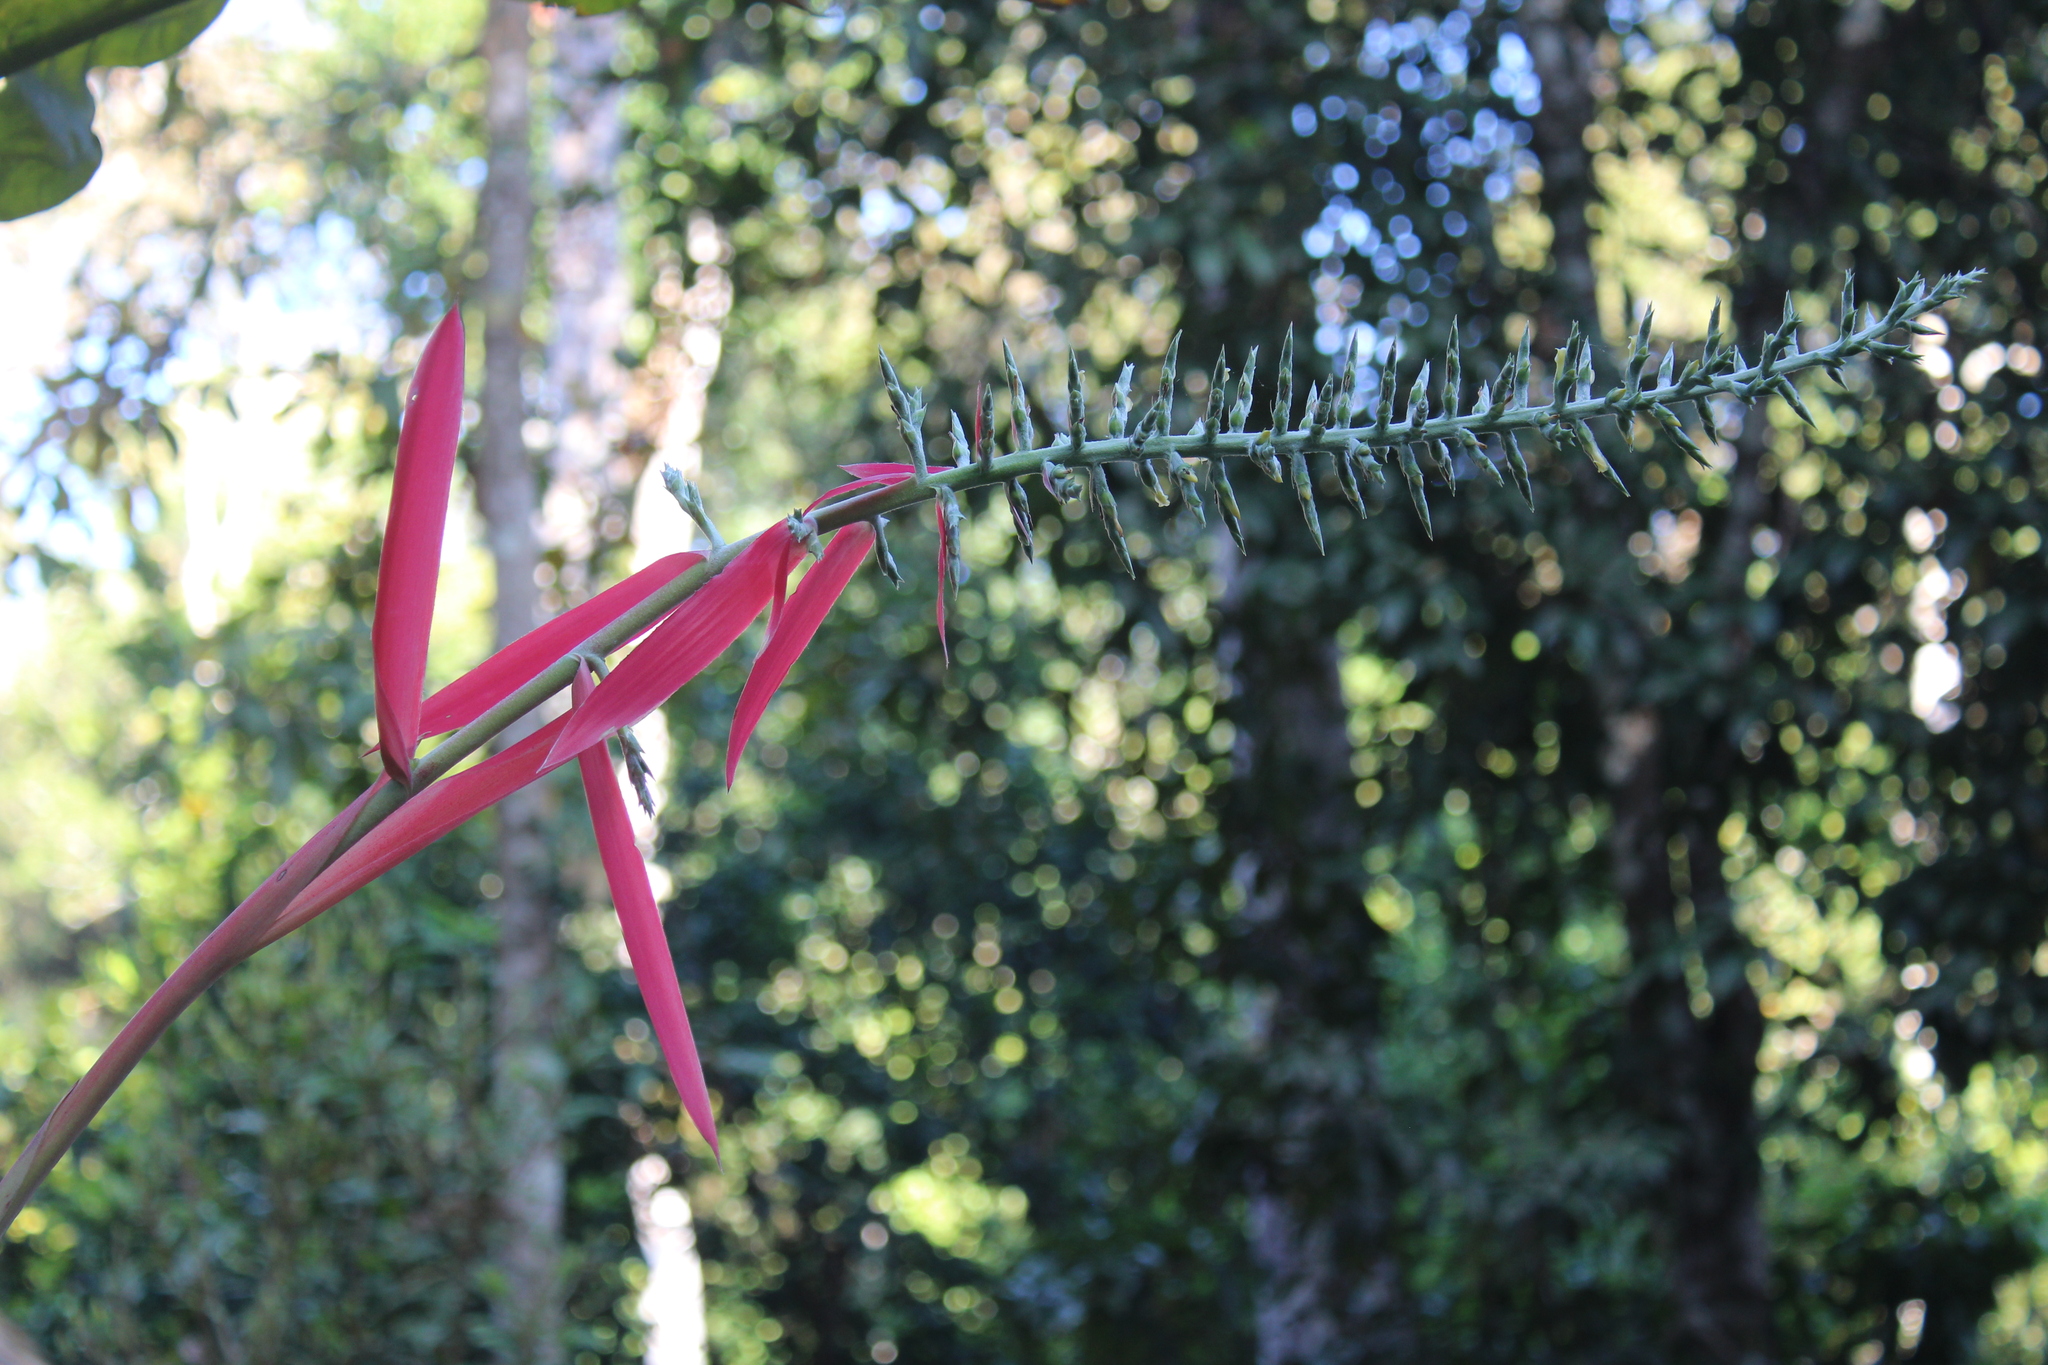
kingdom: Plantae
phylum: Tracheophyta
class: Liliopsida
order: Poales
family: Bromeliaceae
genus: Aechmea
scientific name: Aechmea bracteata
